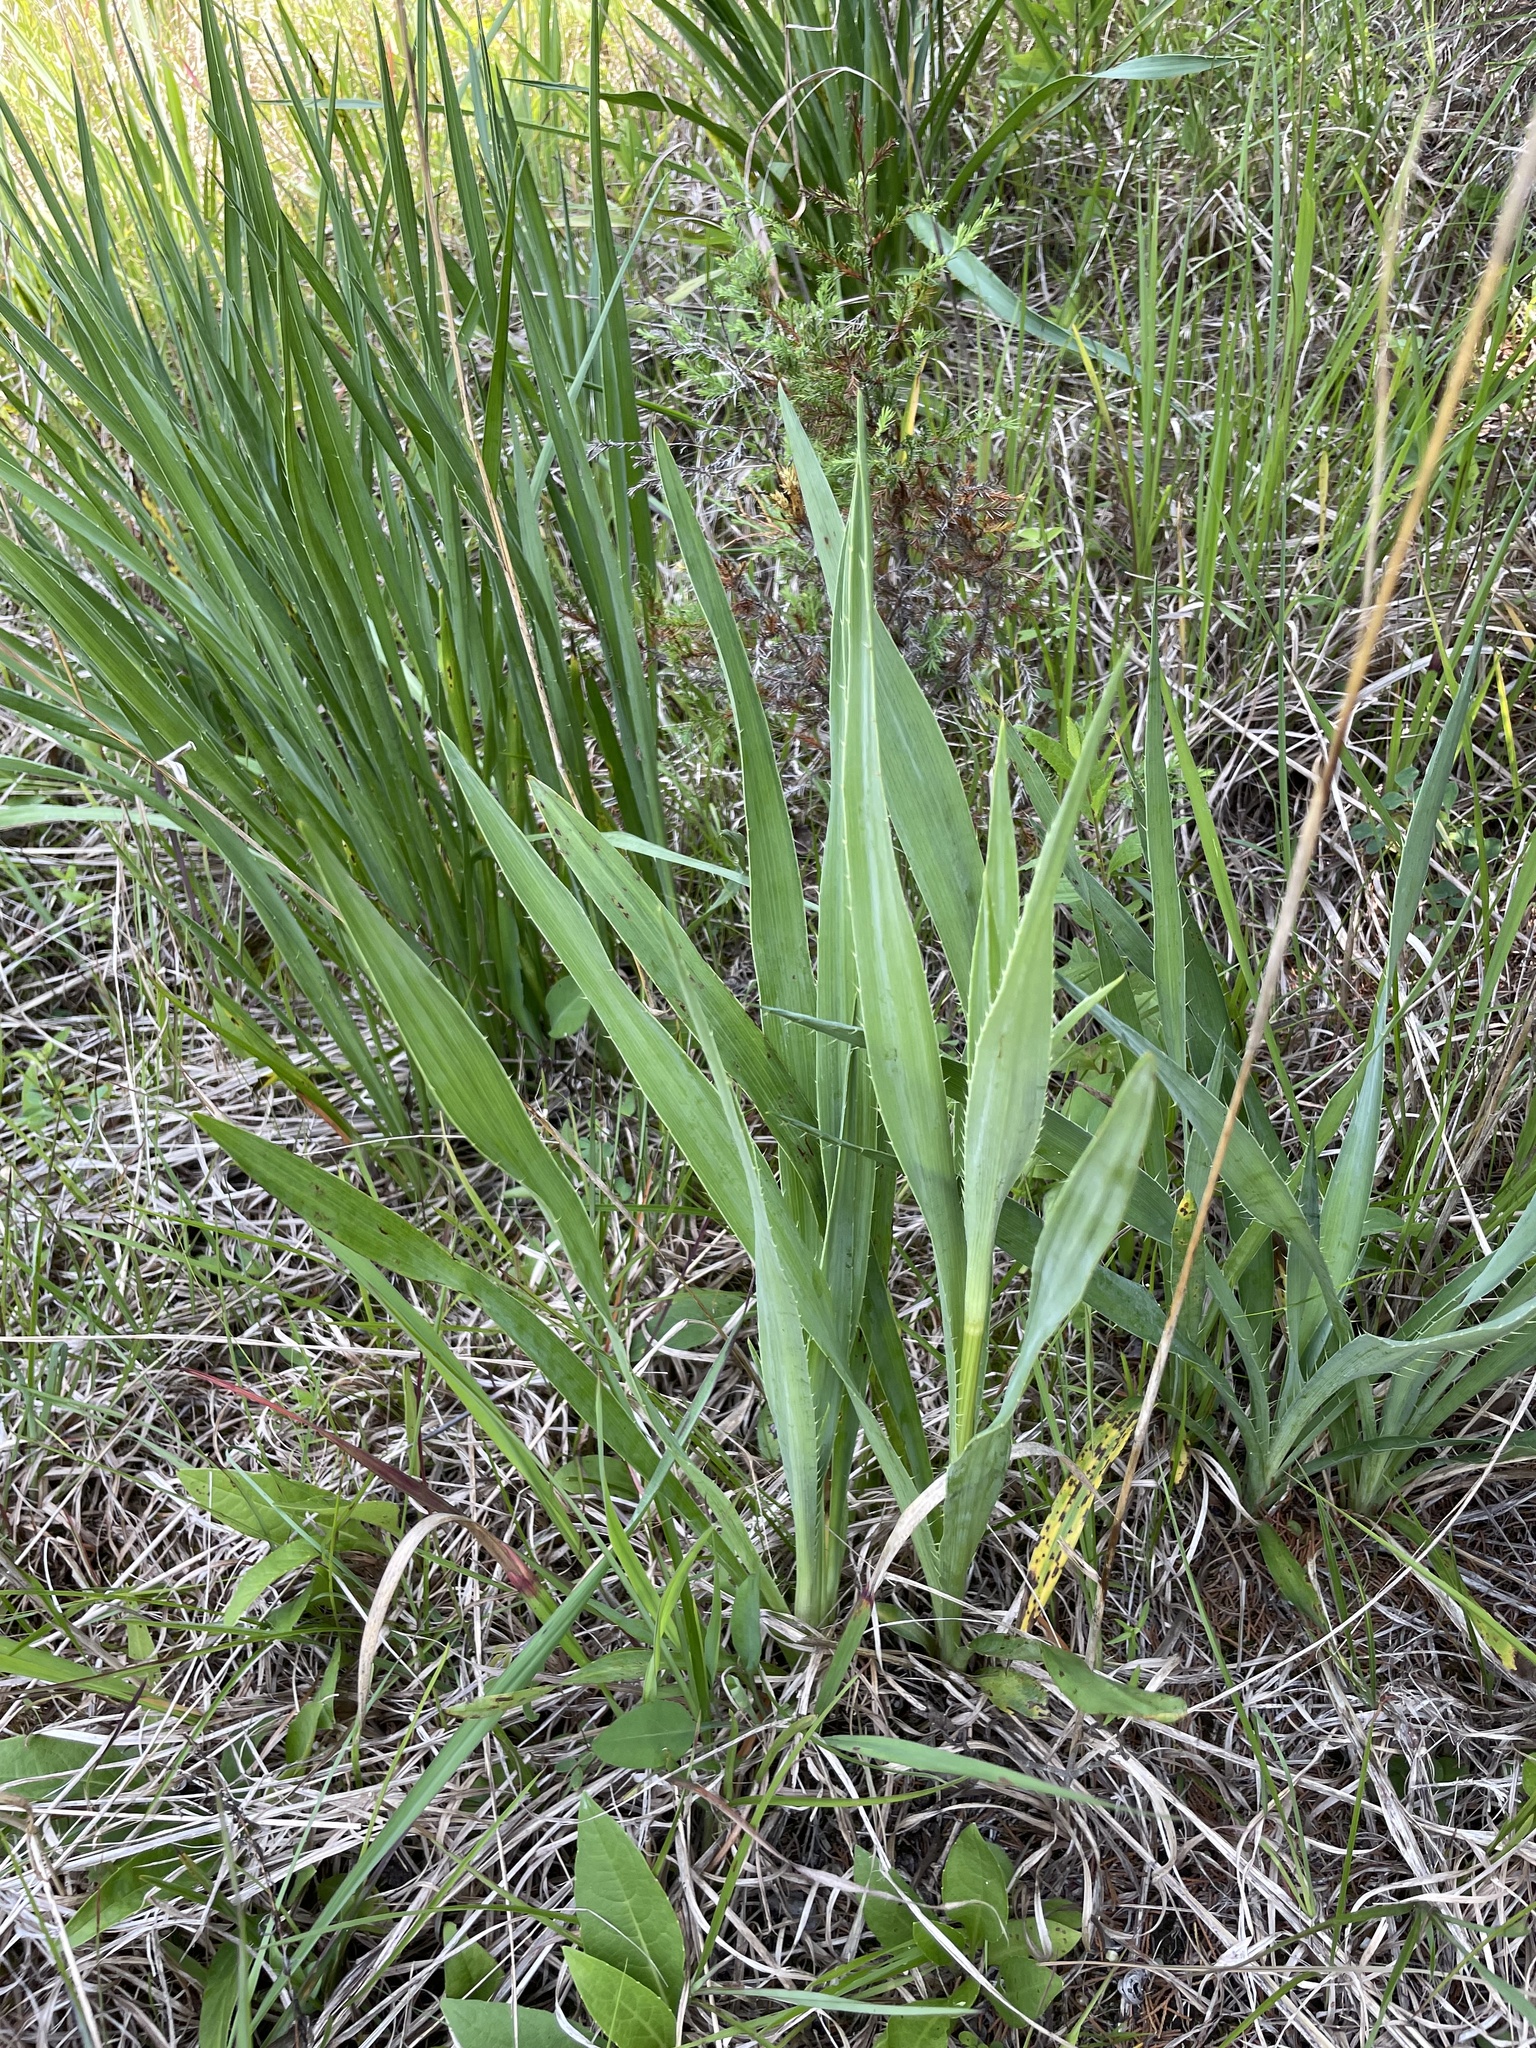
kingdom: Plantae
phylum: Tracheophyta
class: Magnoliopsida
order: Apiales
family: Apiaceae
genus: Eryngium
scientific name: Eryngium yuccifolium
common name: Button eryngo
